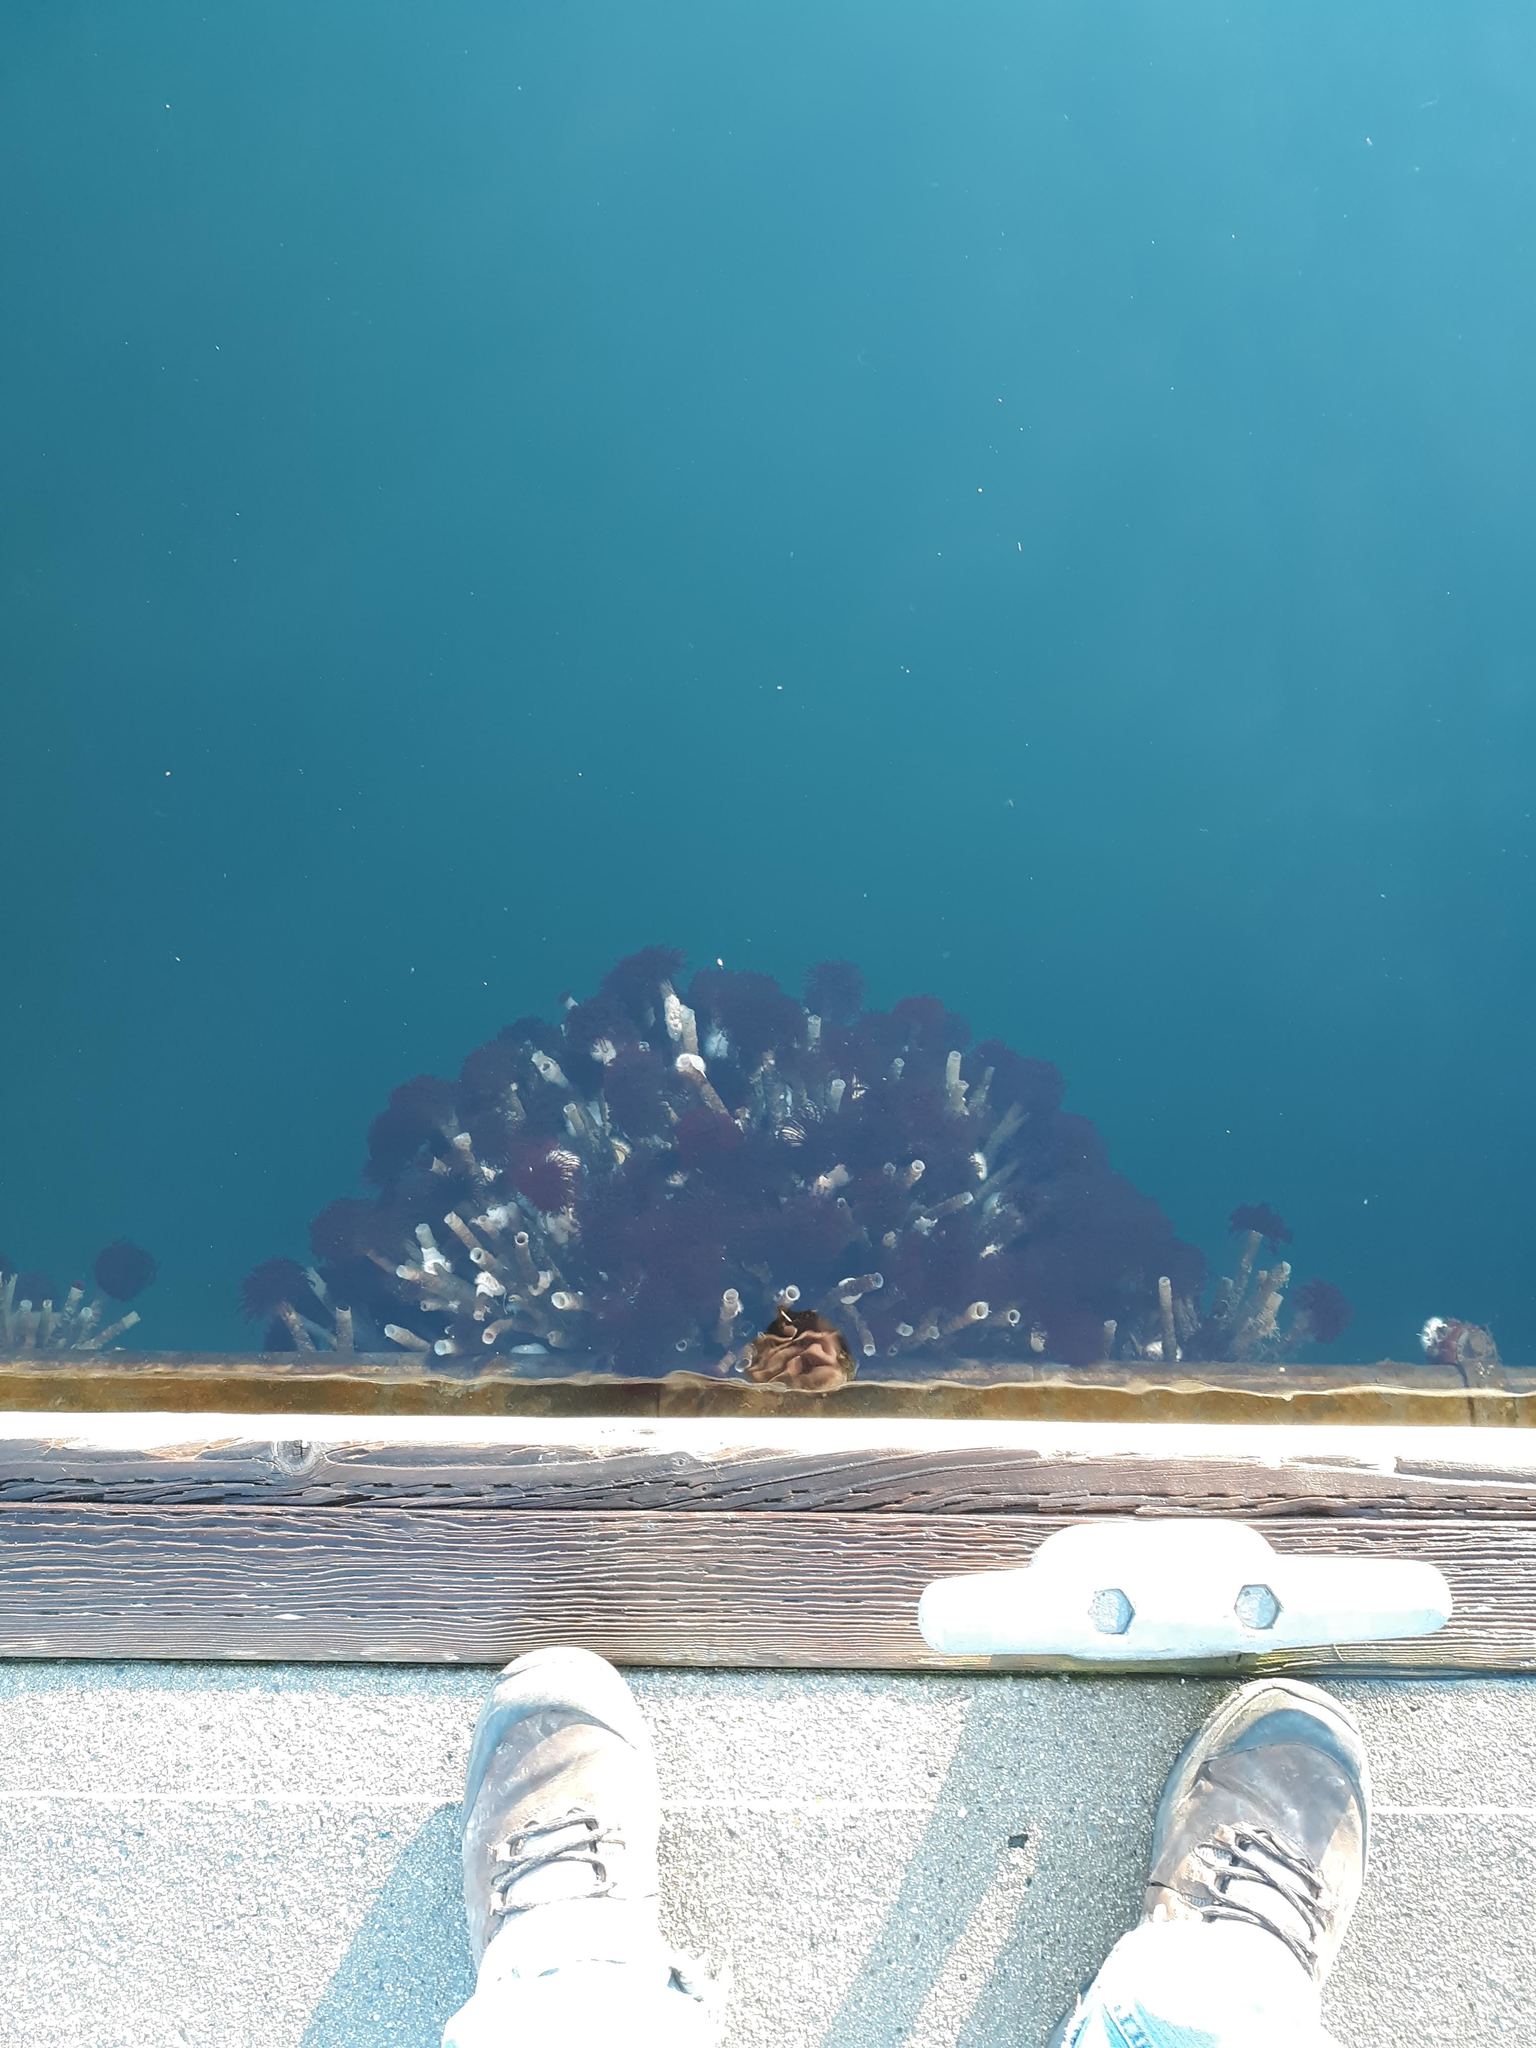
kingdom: Animalia
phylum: Annelida
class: Polychaeta
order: Sabellida
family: Sabellidae
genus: Eudistylia
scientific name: Eudistylia vancouveri
